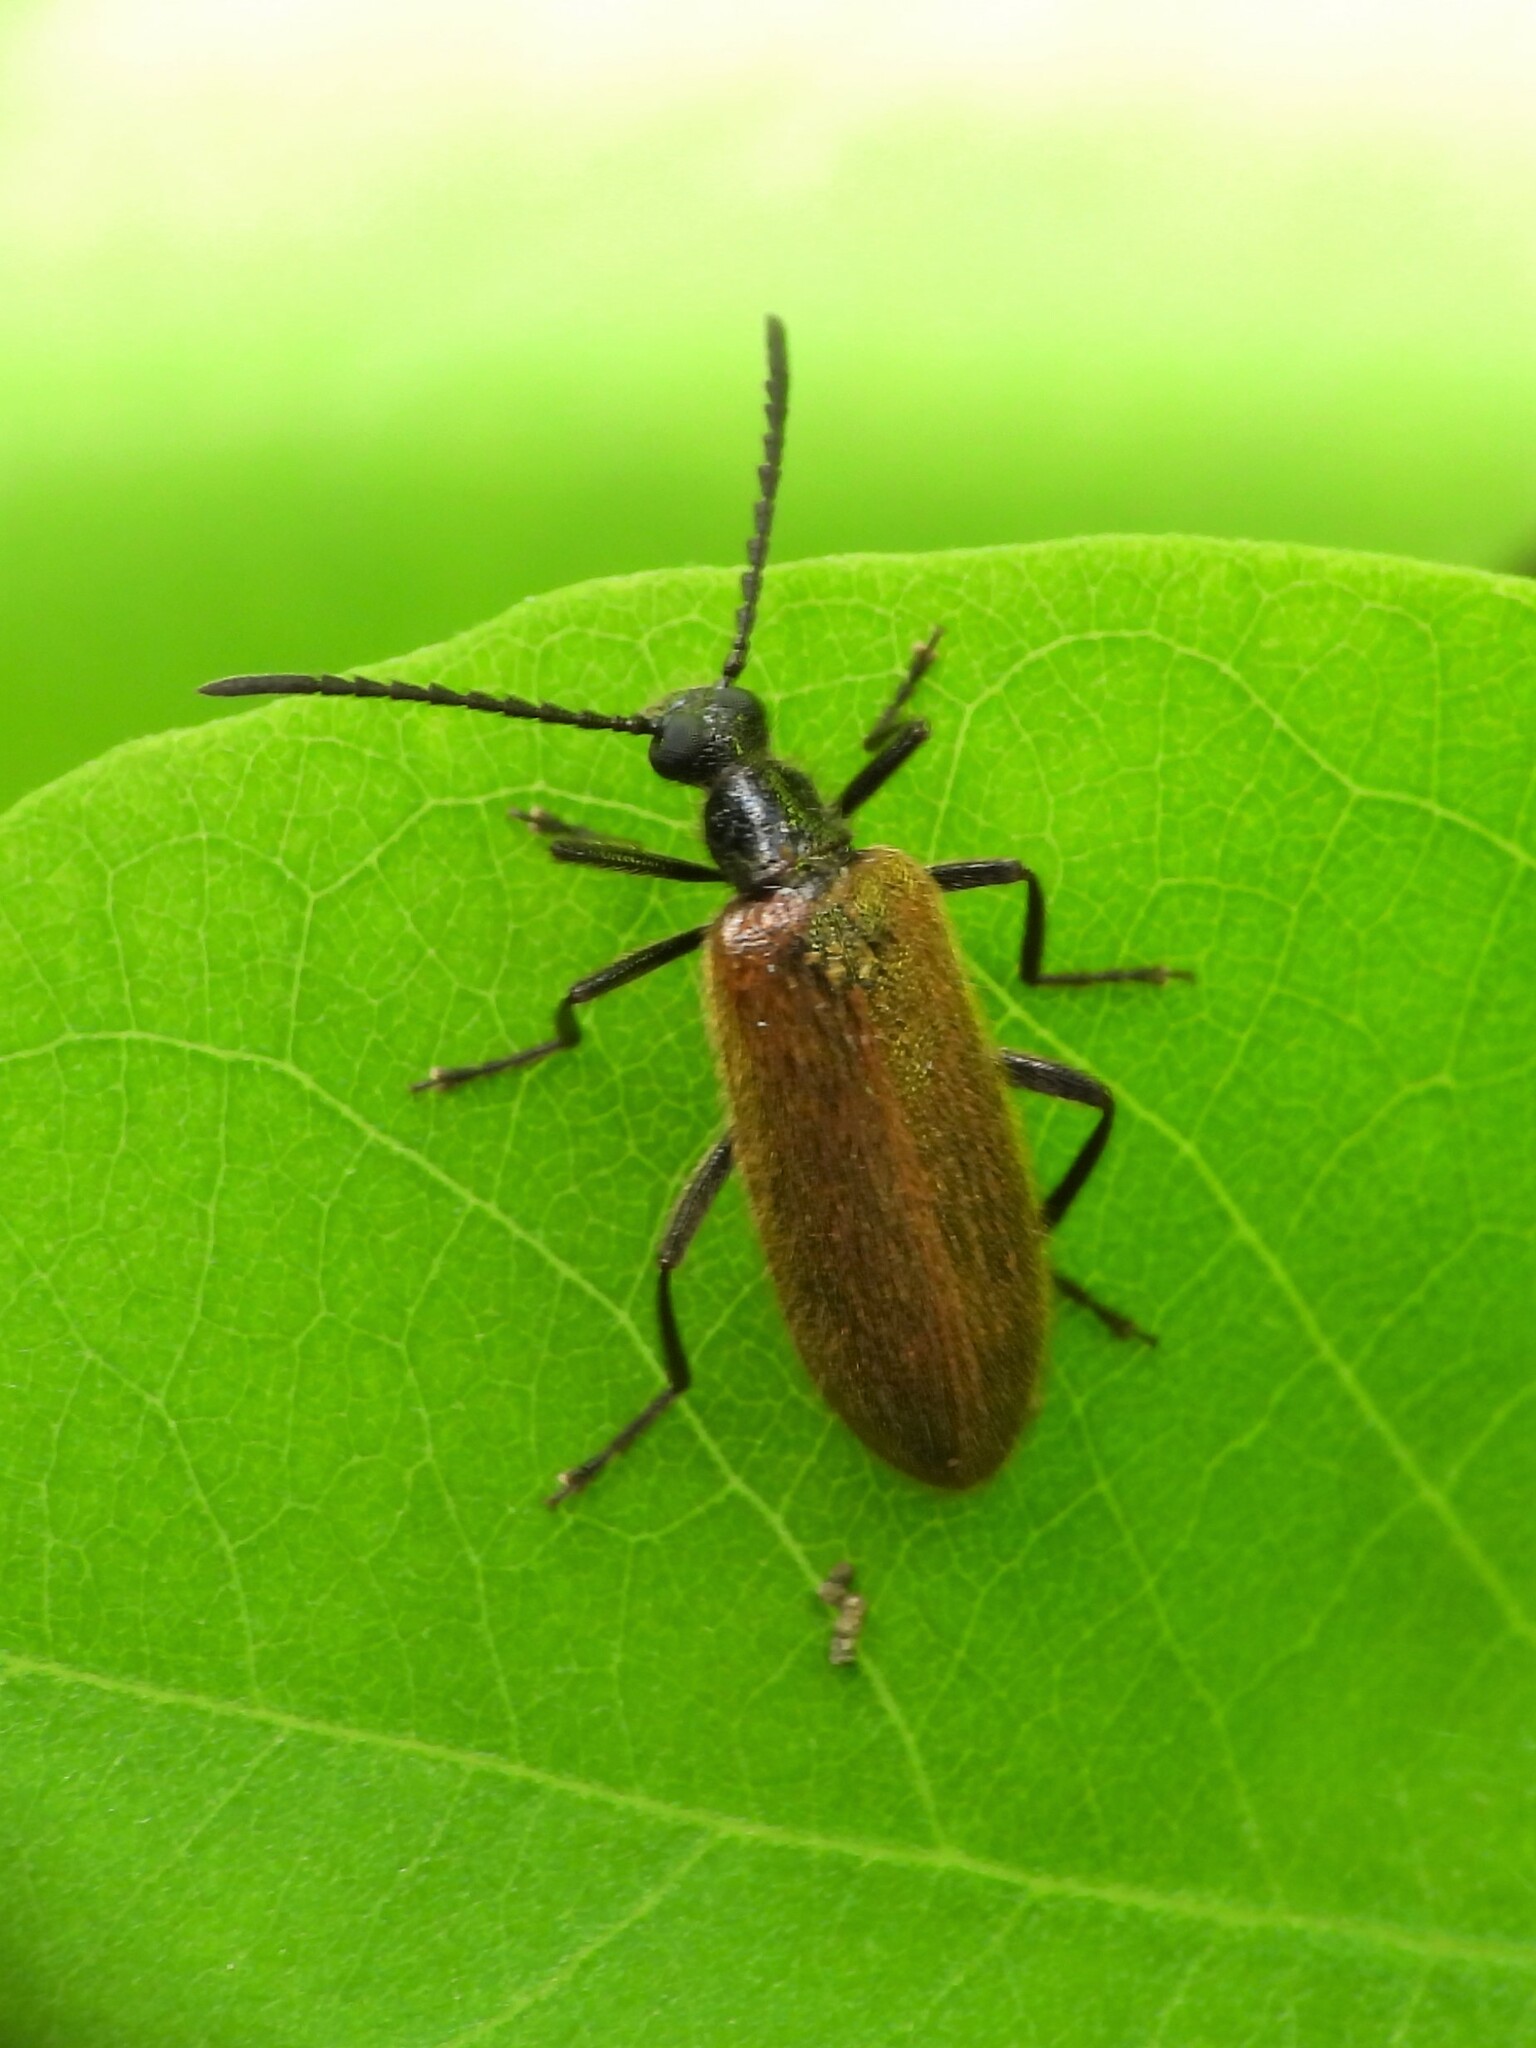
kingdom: Animalia
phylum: Arthropoda
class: Insecta
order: Coleoptera
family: Tenebrionidae
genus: Lagria
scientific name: Lagria hirta
